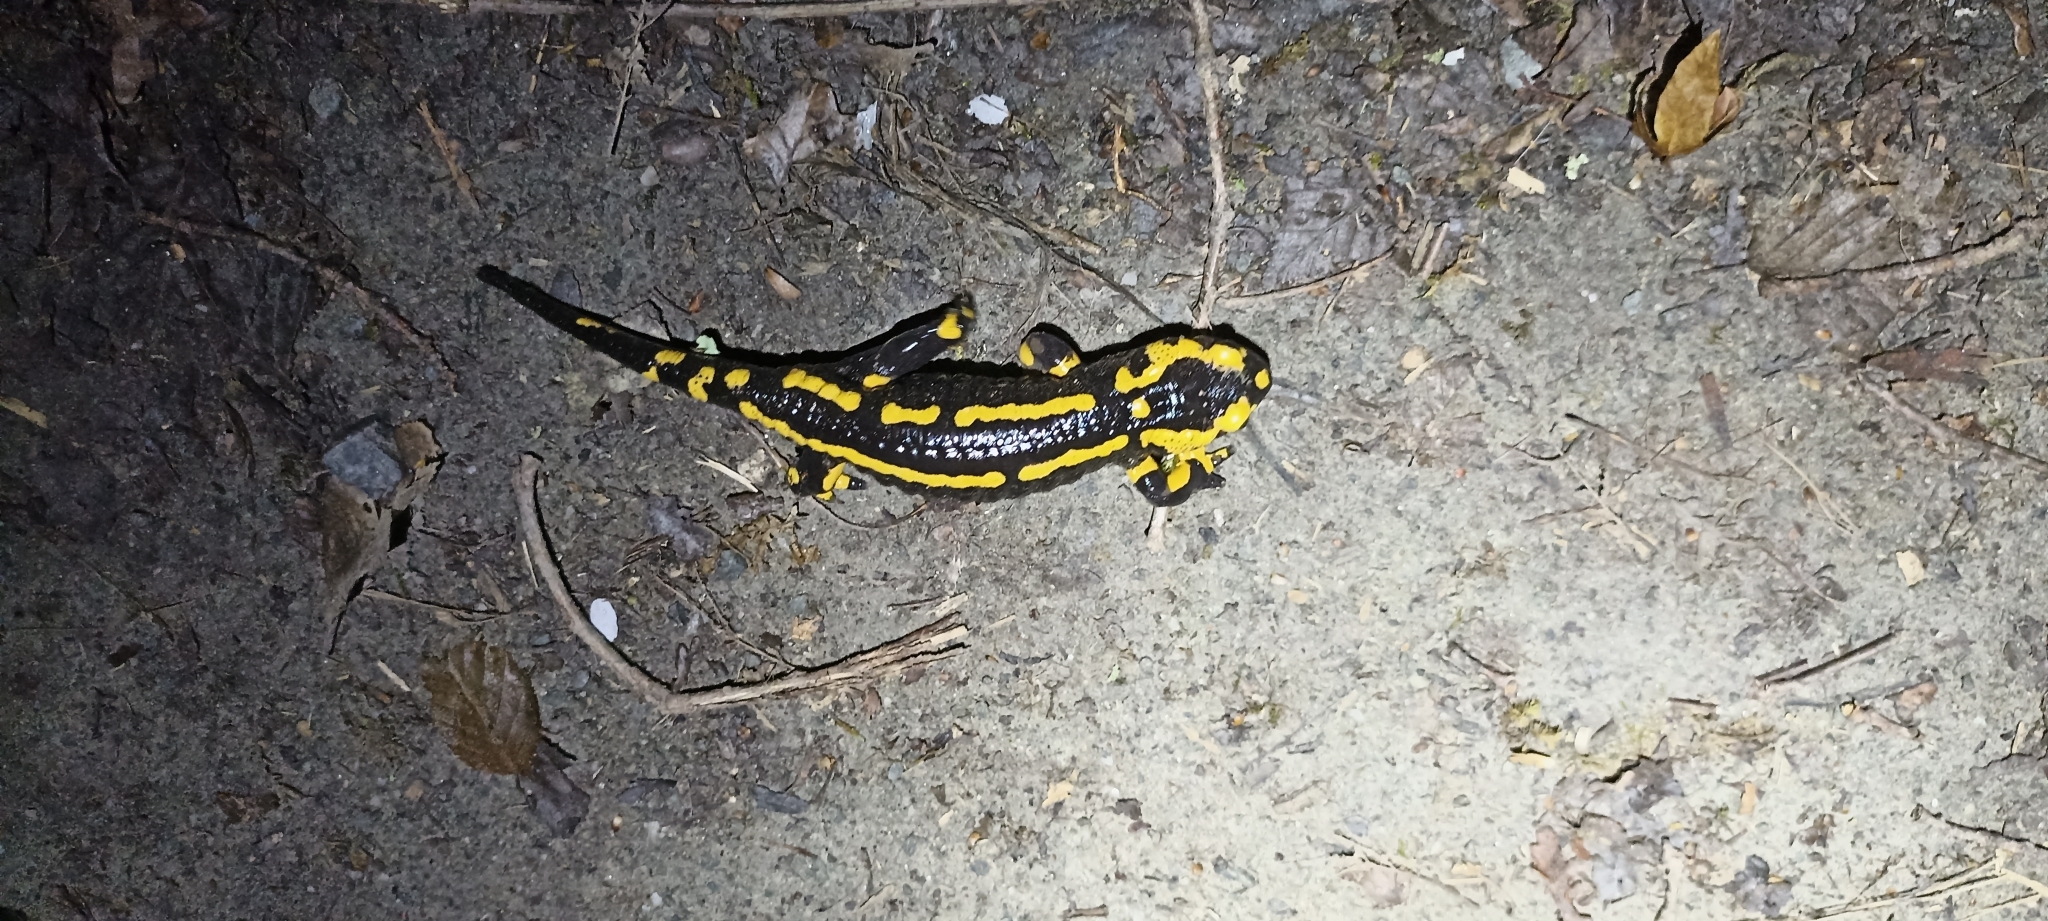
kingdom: Animalia
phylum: Chordata
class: Amphibia
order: Caudata
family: Salamandridae
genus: Salamandra
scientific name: Salamandra salamandra
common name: Fire salamander
